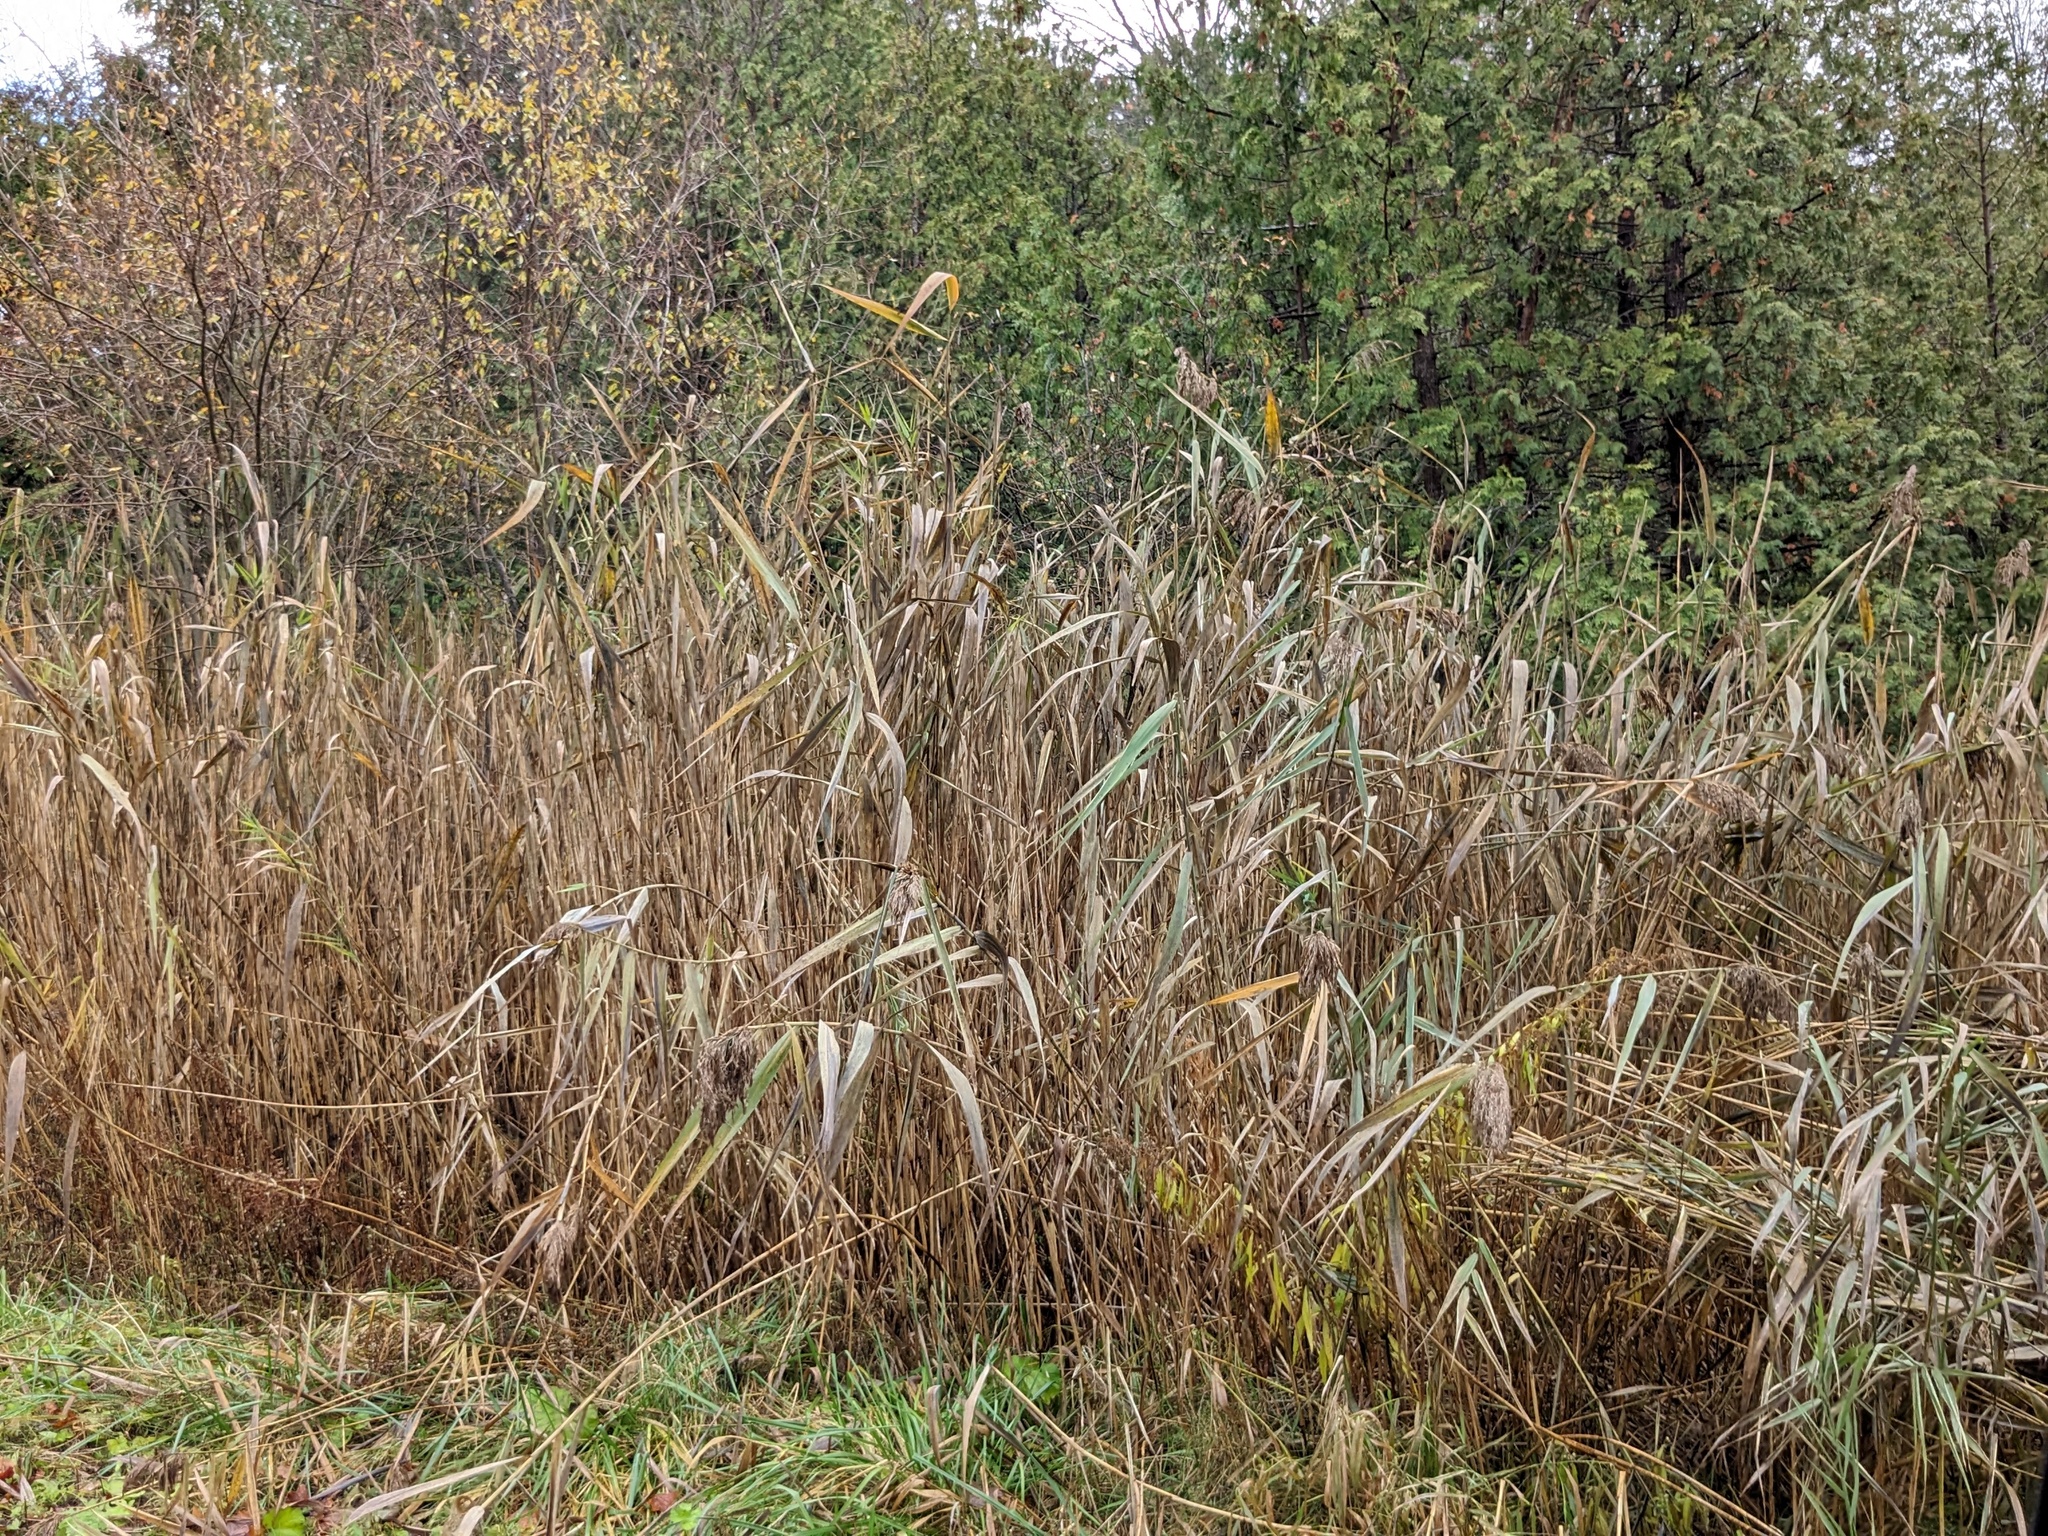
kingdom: Plantae
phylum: Tracheophyta
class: Liliopsida
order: Poales
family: Poaceae
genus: Phragmites
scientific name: Phragmites australis
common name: Common reed
